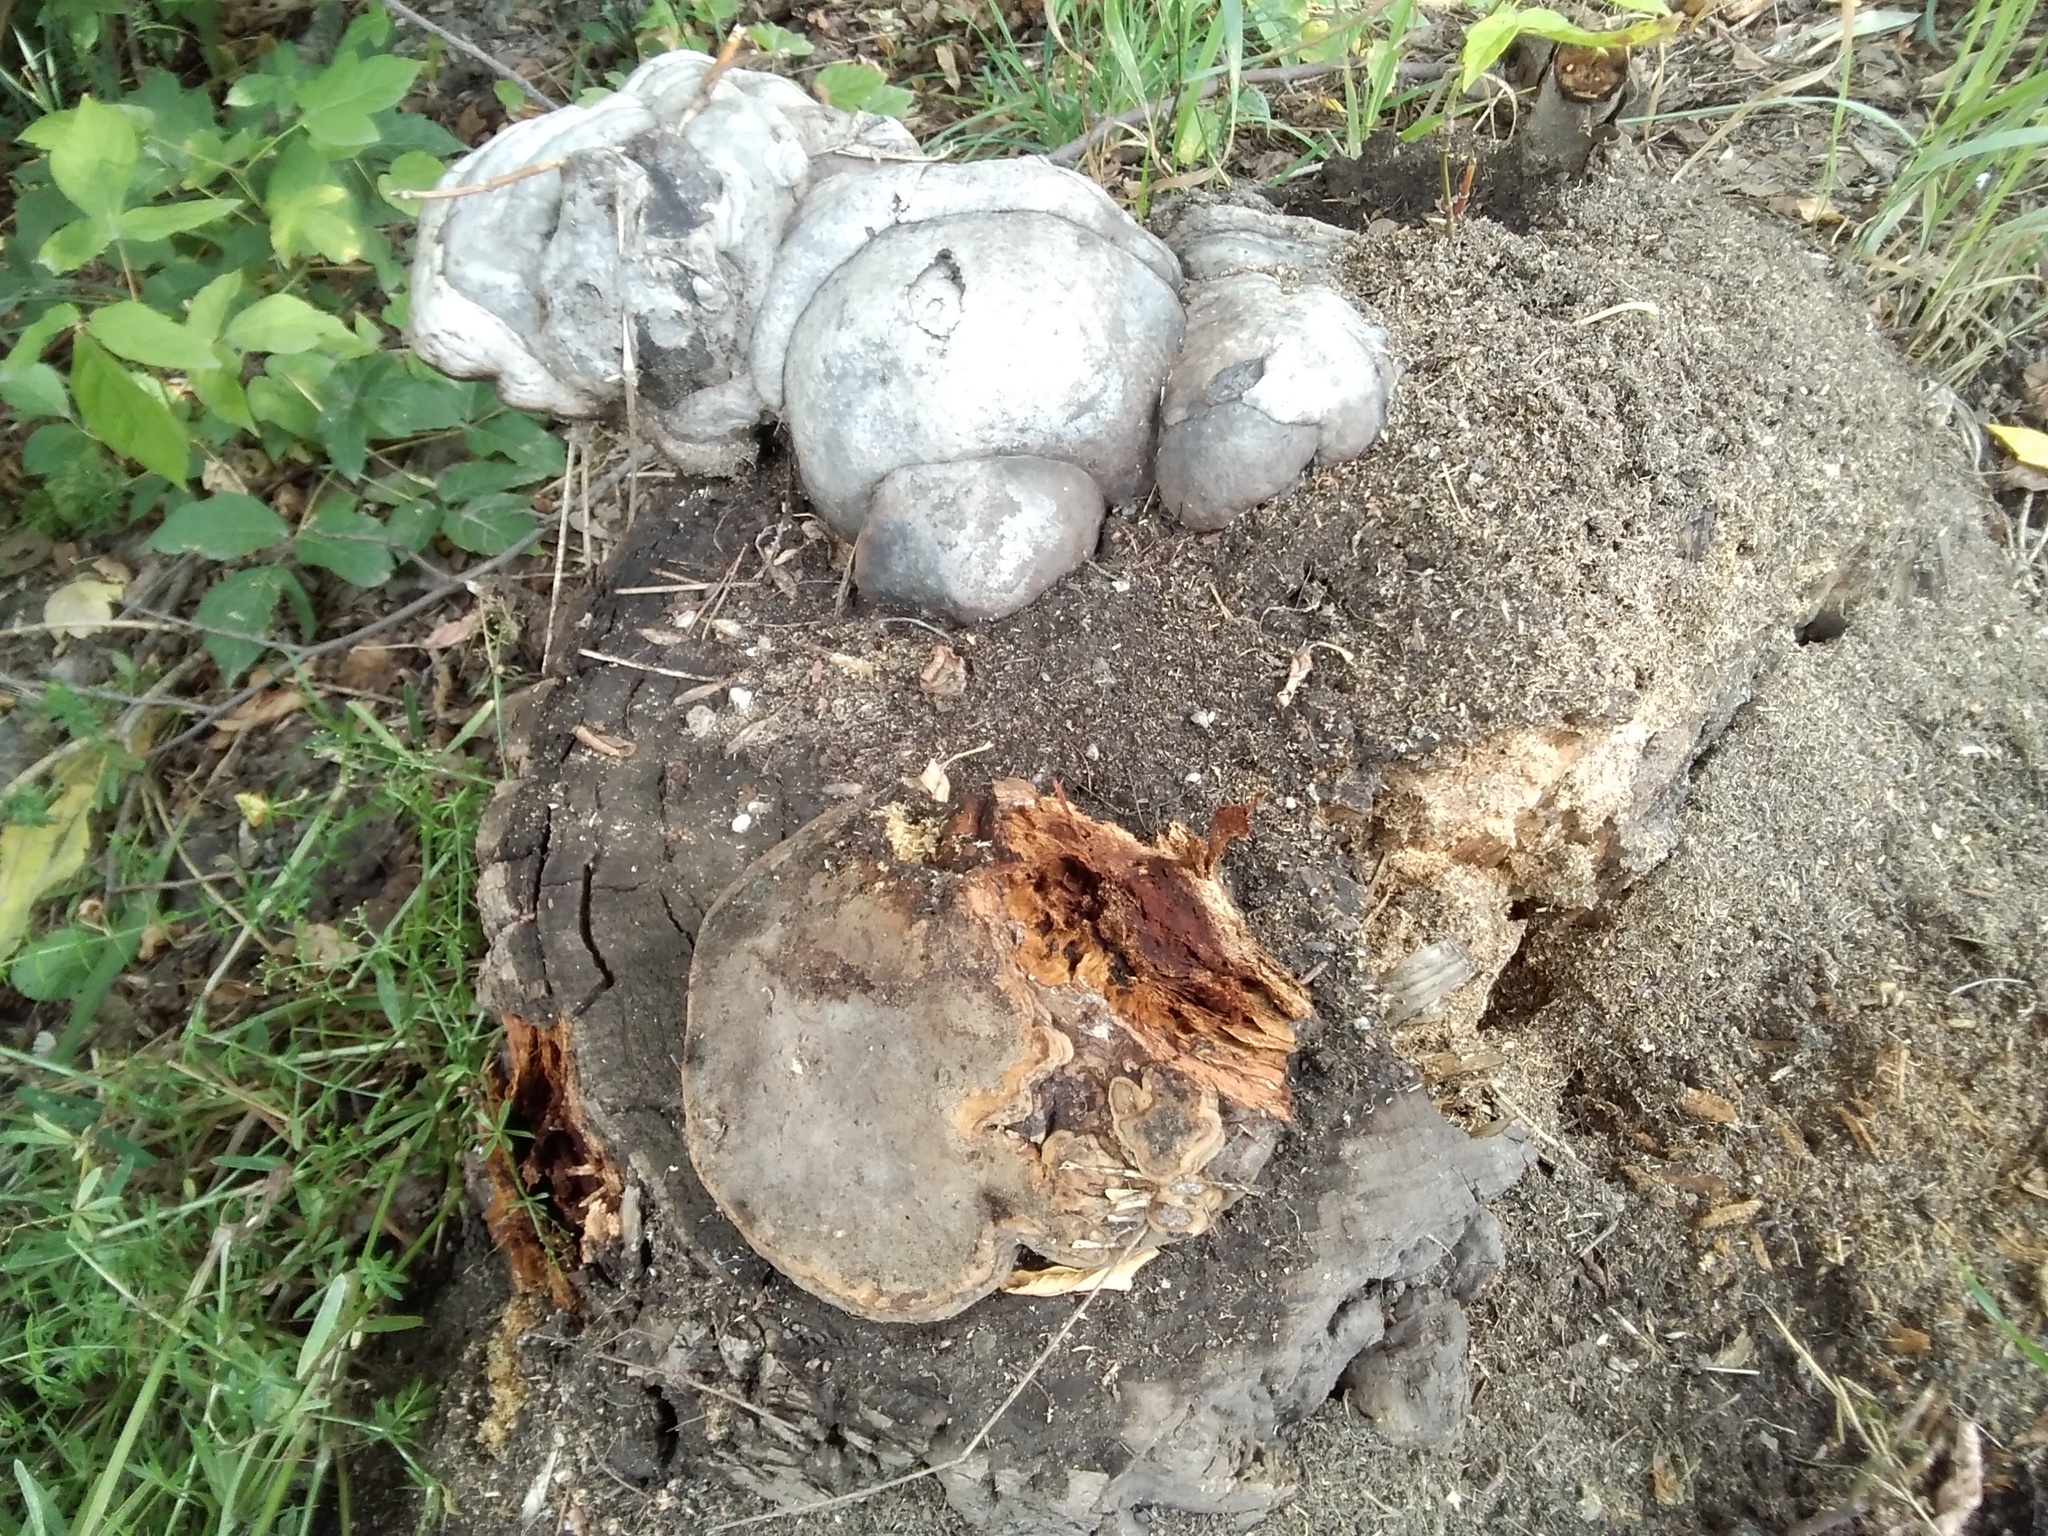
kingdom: Fungi
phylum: Basidiomycota
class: Agaricomycetes
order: Polyporales
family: Polyporaceae
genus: Fomes
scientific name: Fomes fomentarius
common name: Hoof fungus
